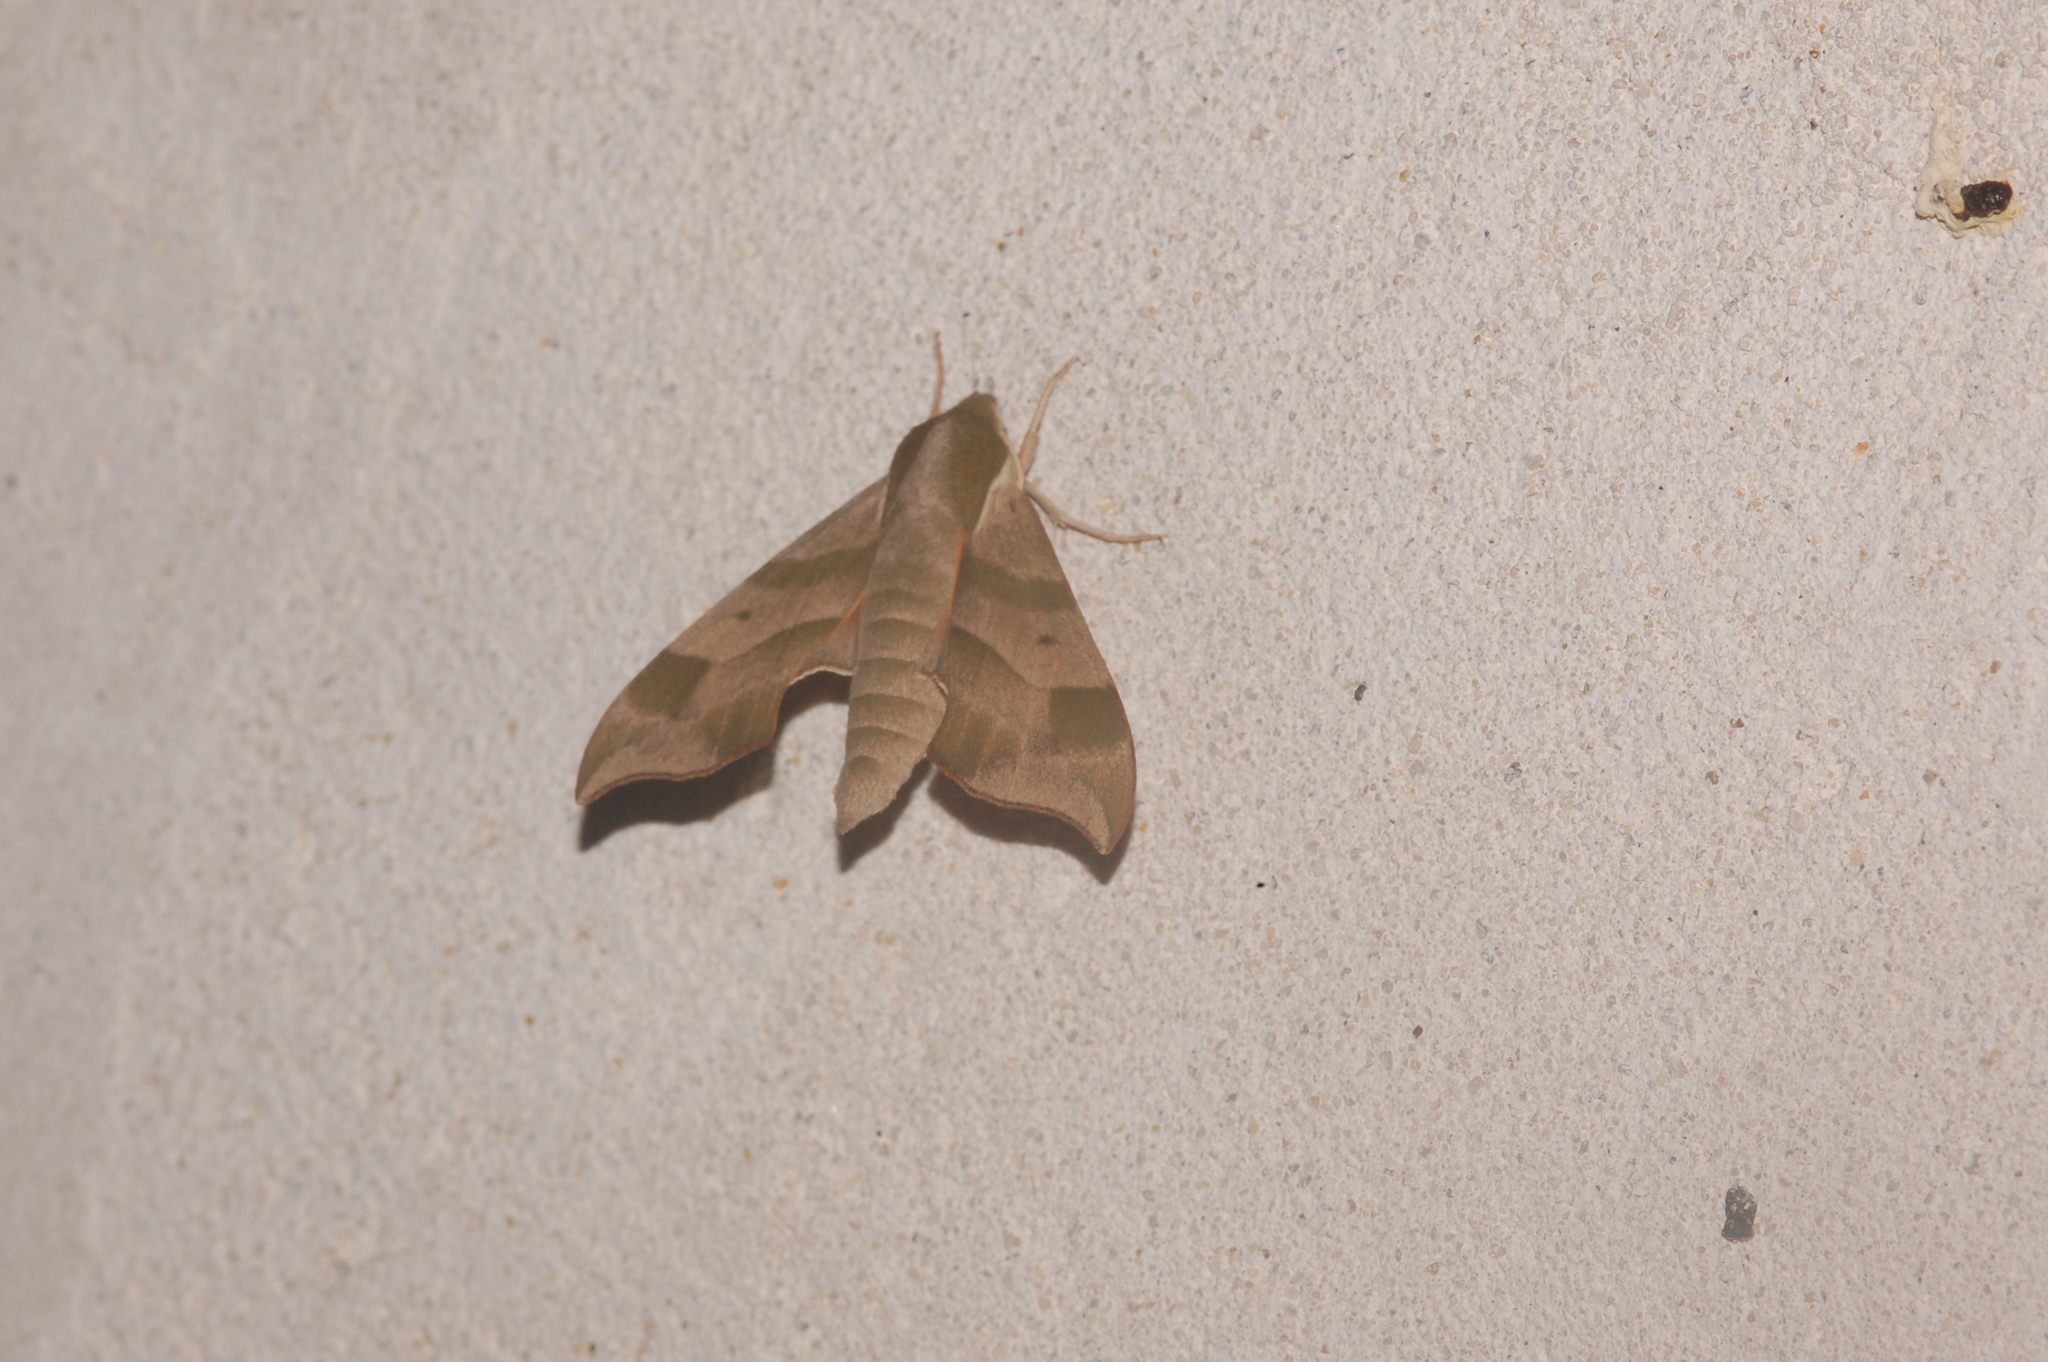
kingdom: Animalia
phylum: Arthropoda
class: Insecta
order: Lepidoptera
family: Sphingidae
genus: Darapsa
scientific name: Darapsa myron
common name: Hog sphinx
